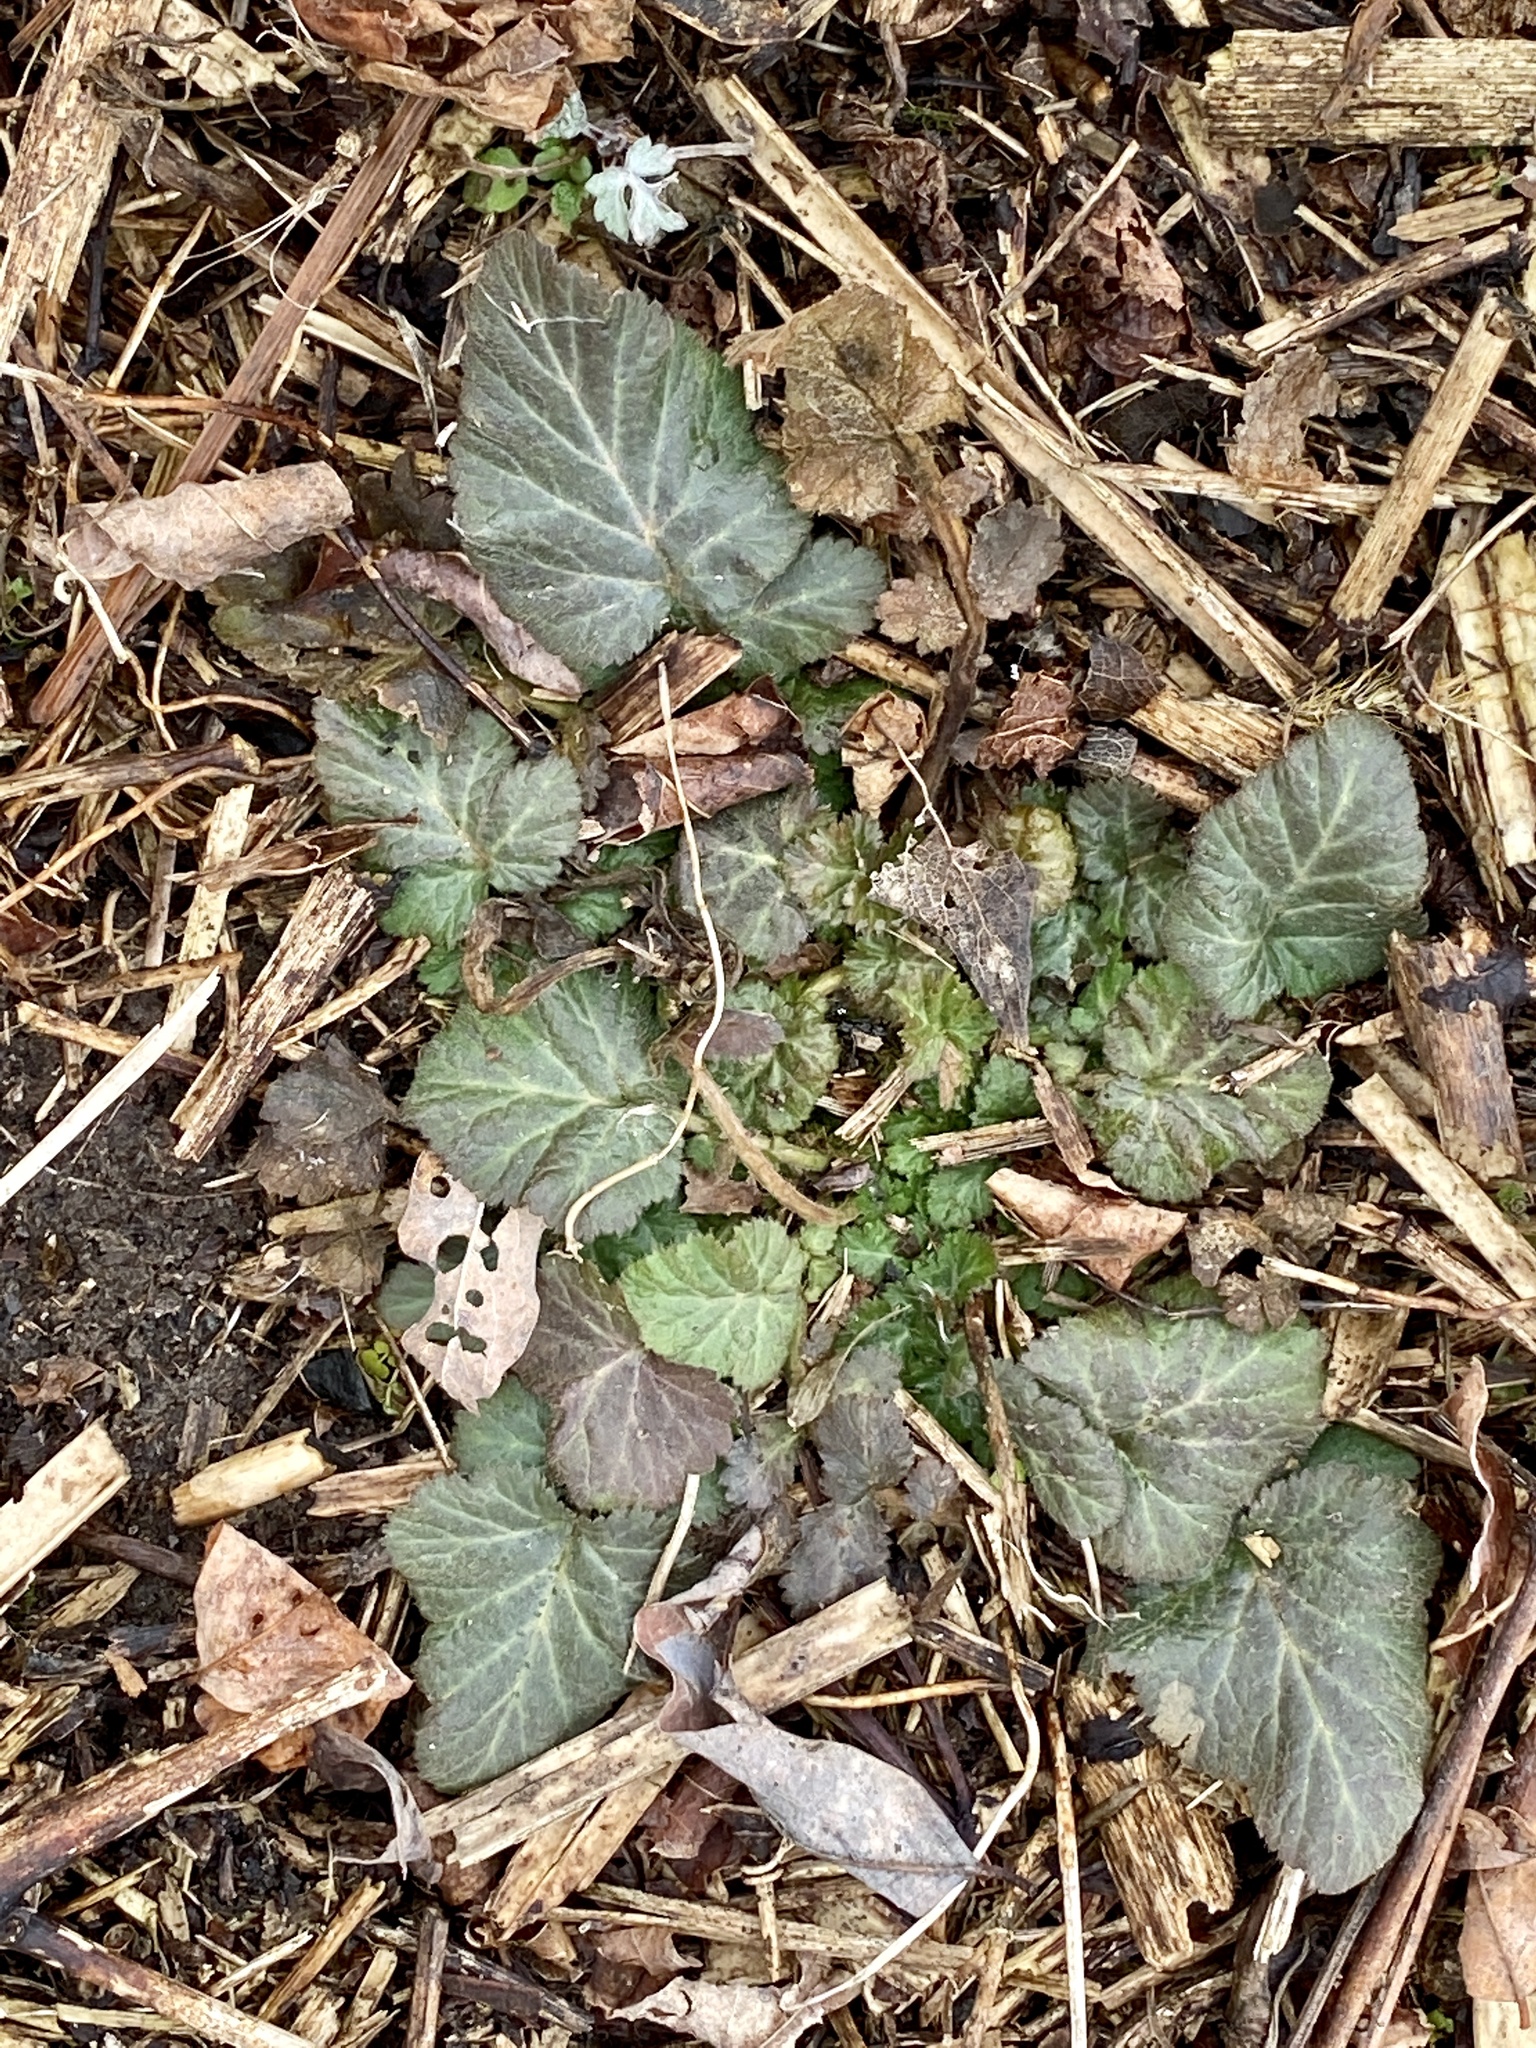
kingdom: Plantae
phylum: Tracheophyta
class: Magnoliopsida
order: Rosales
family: Rosaceae
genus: Geum
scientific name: Geum canadense
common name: White avens
